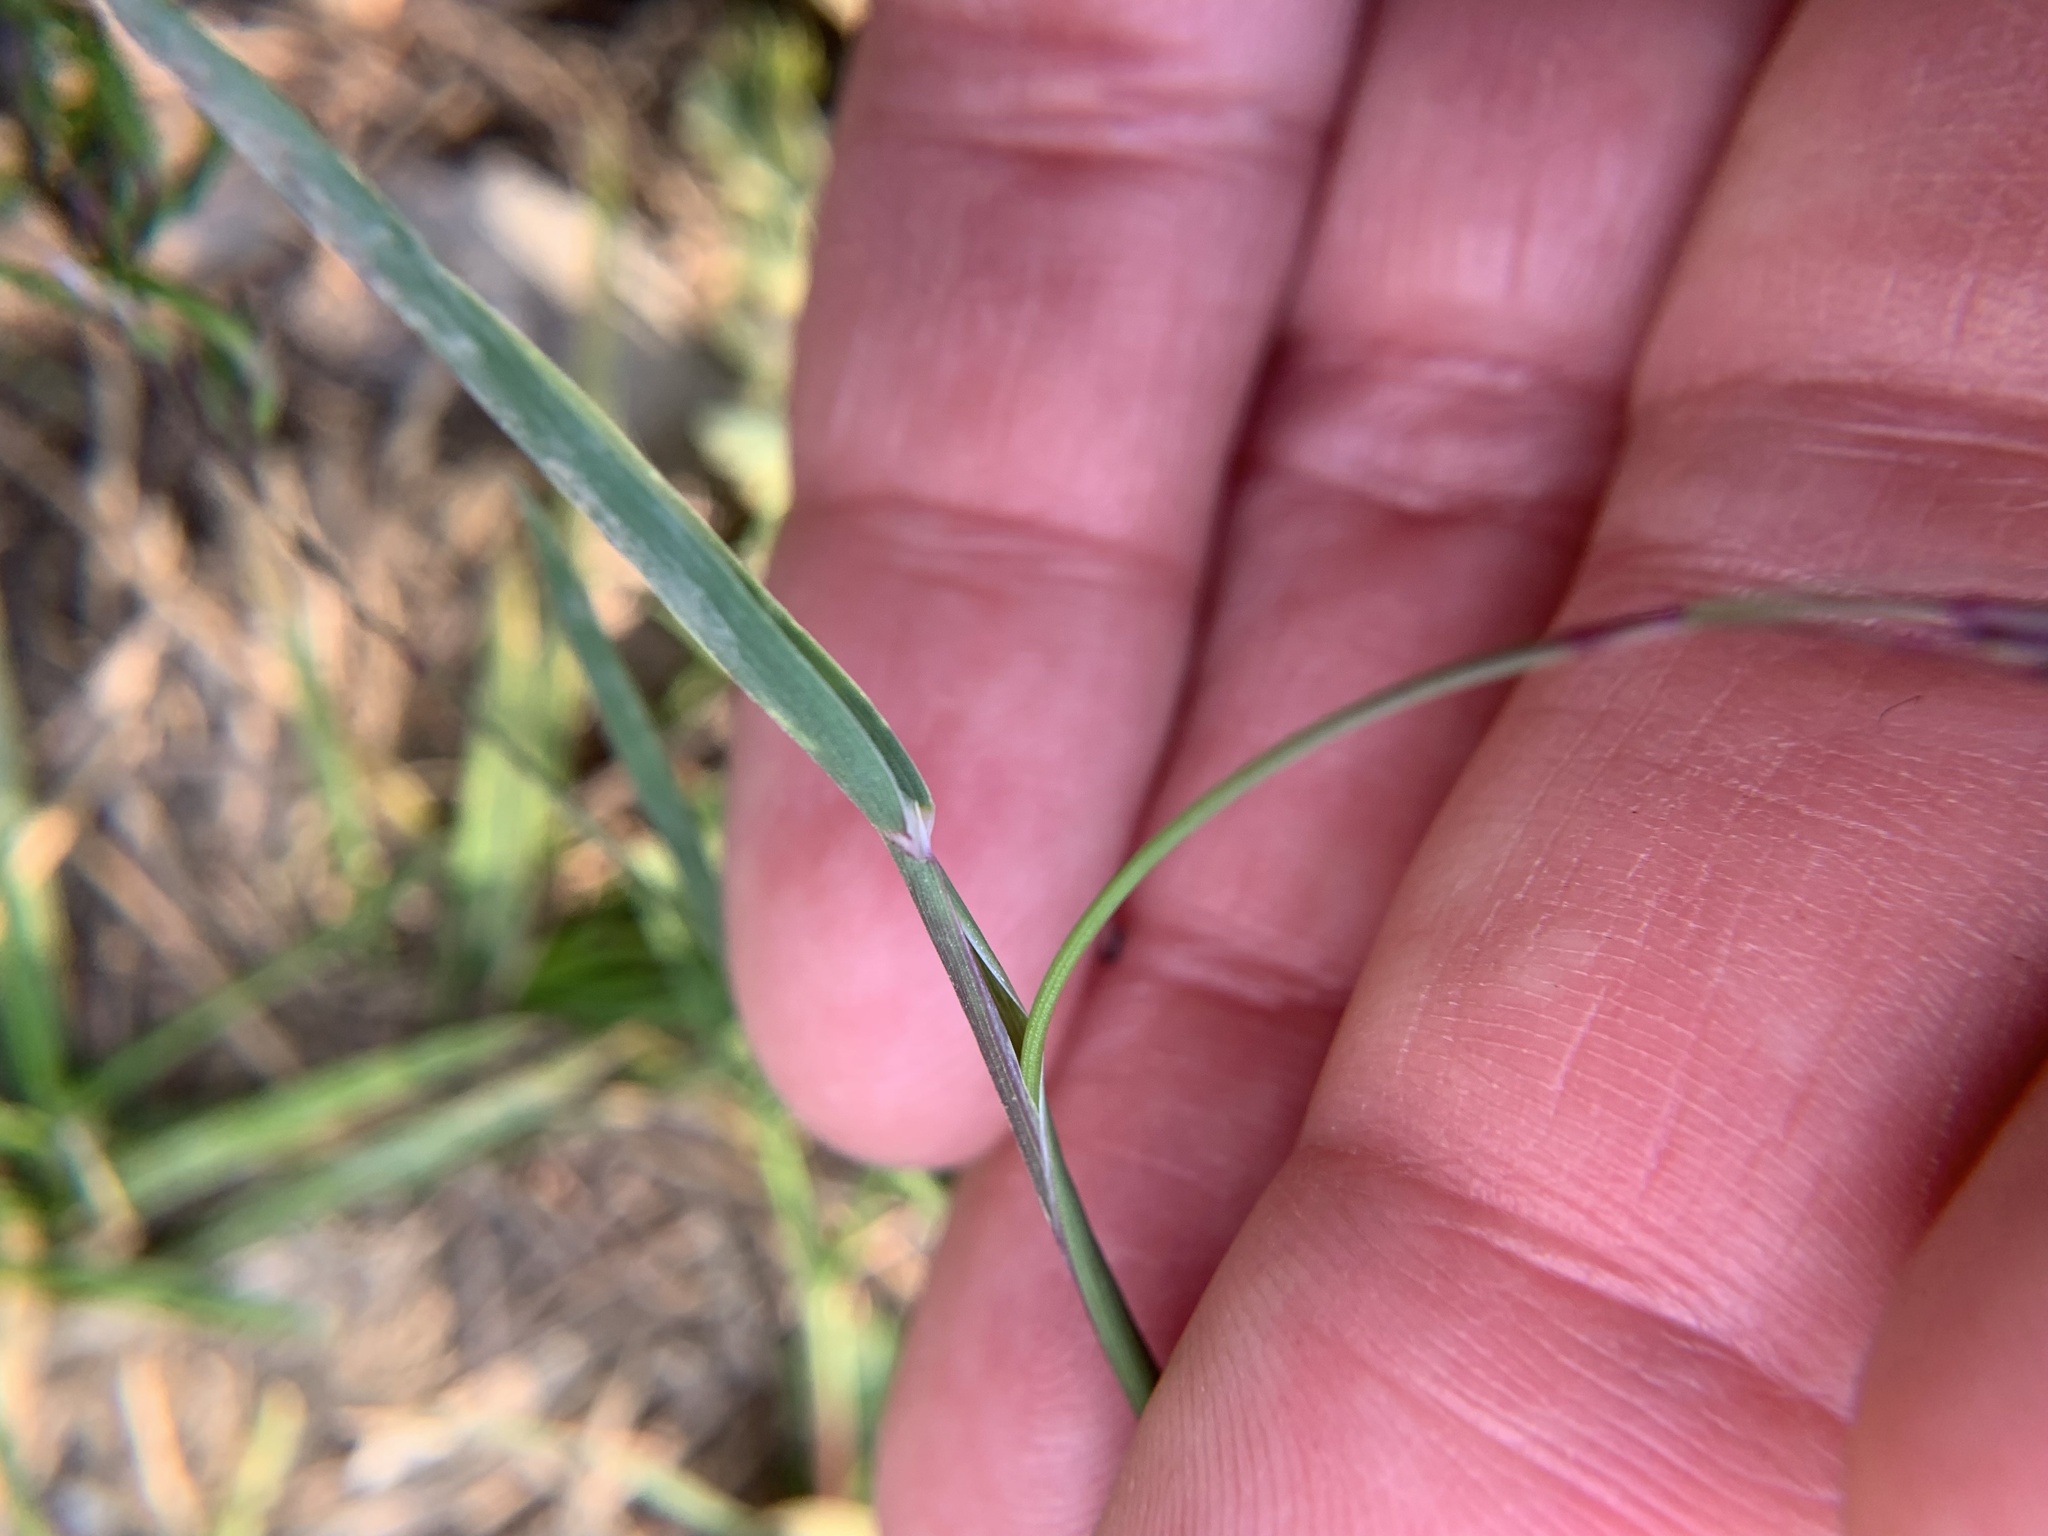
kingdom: Plantae
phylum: Tracheophyta
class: Liliopsida
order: Poales
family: Poaceae
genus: Poa
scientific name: Poa alpina
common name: Alpine bluegrass
